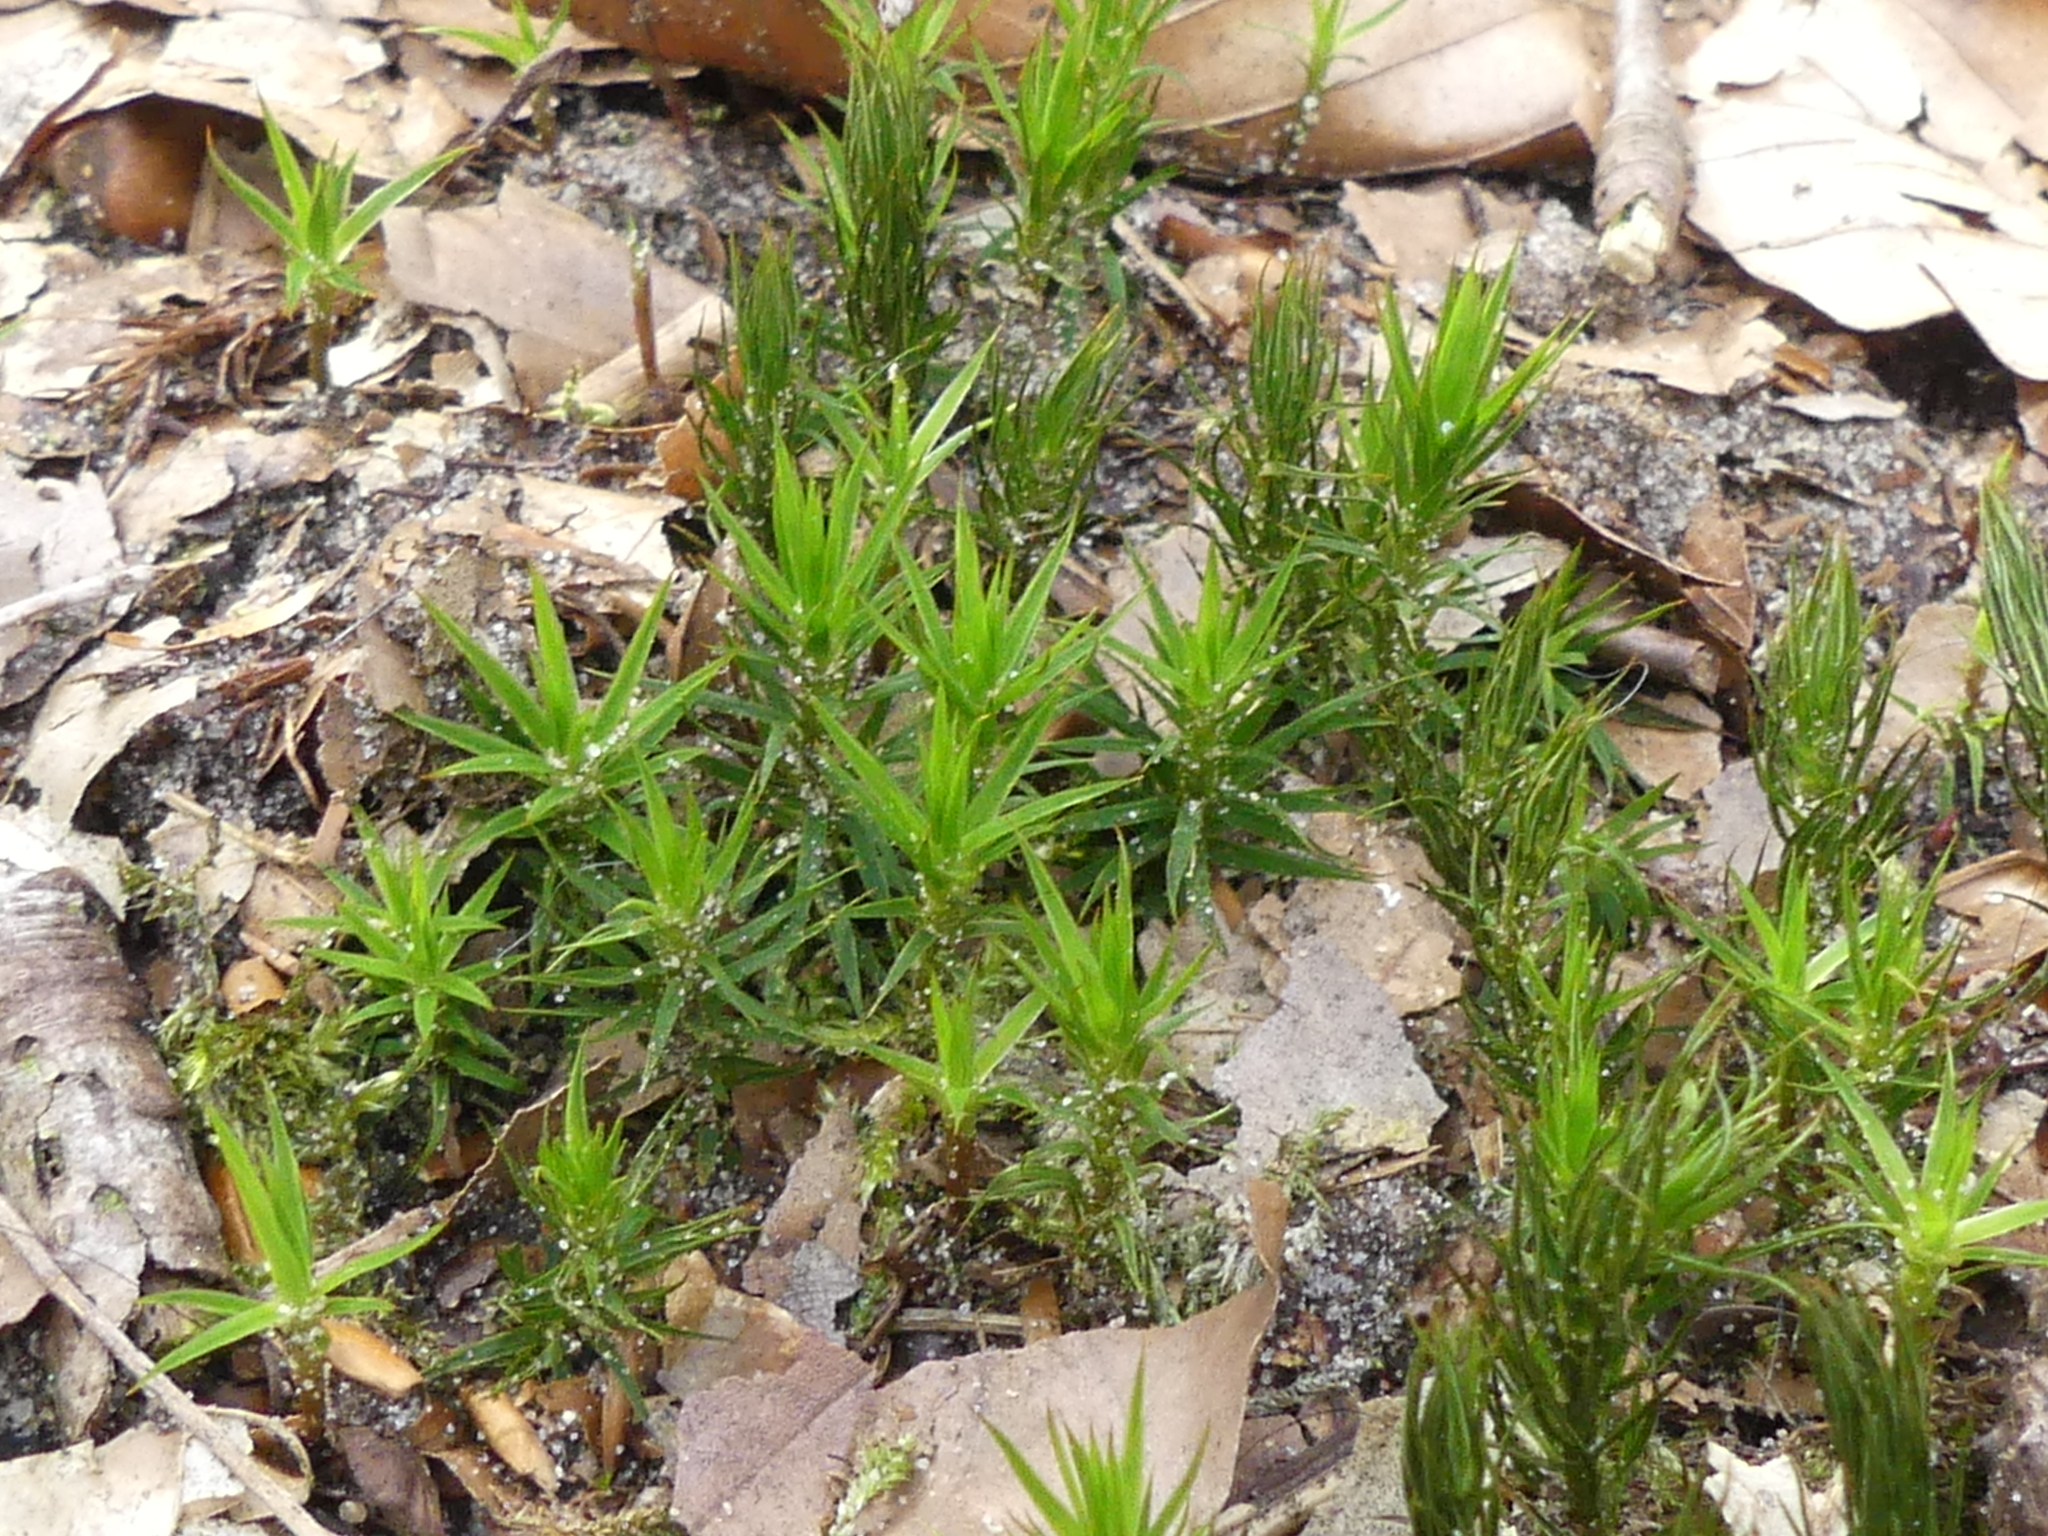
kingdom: Plantae
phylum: Bryophyta
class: Polytrichopsida
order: Polytrichales
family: Polytrichaceae
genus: Polytrichum
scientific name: Polytrichum formosum
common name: Bank haircap moss
